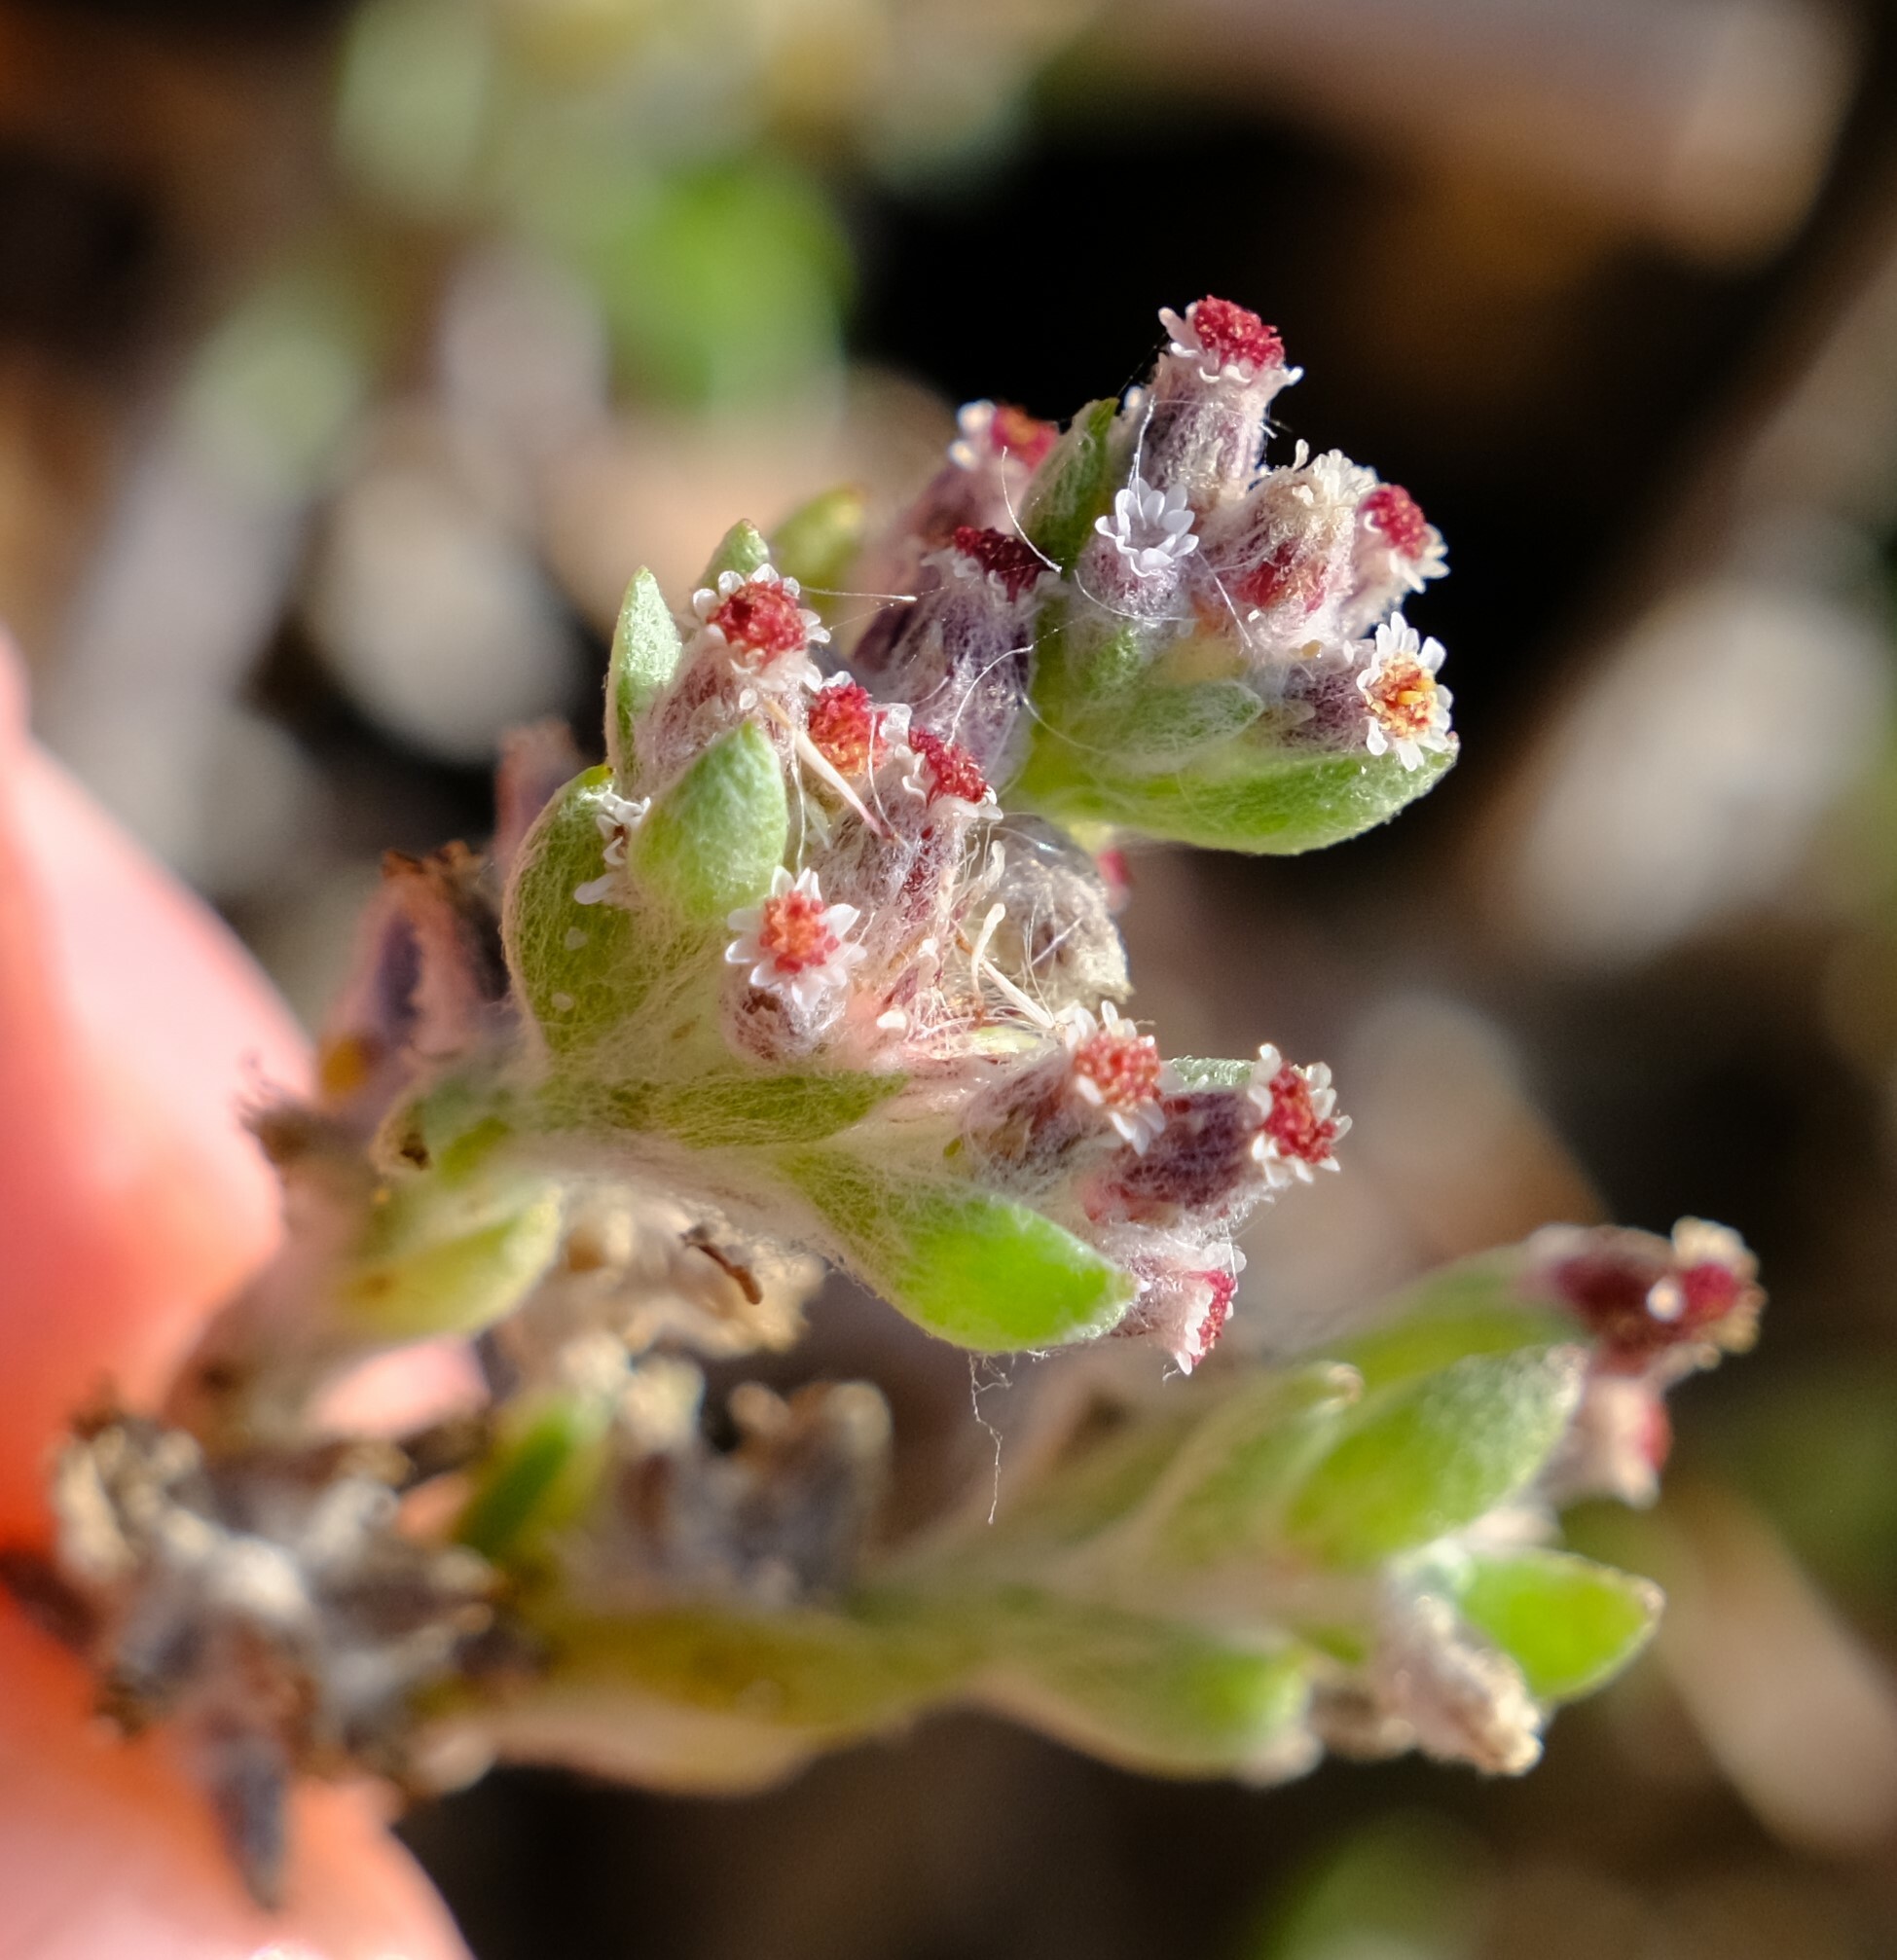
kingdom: Plantae
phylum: Tracheophyta
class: Magnoliopsida
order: Asterales
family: Asteraceae
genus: Vellereophyton
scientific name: Vellereophyton dealbatum
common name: White-cudweed
